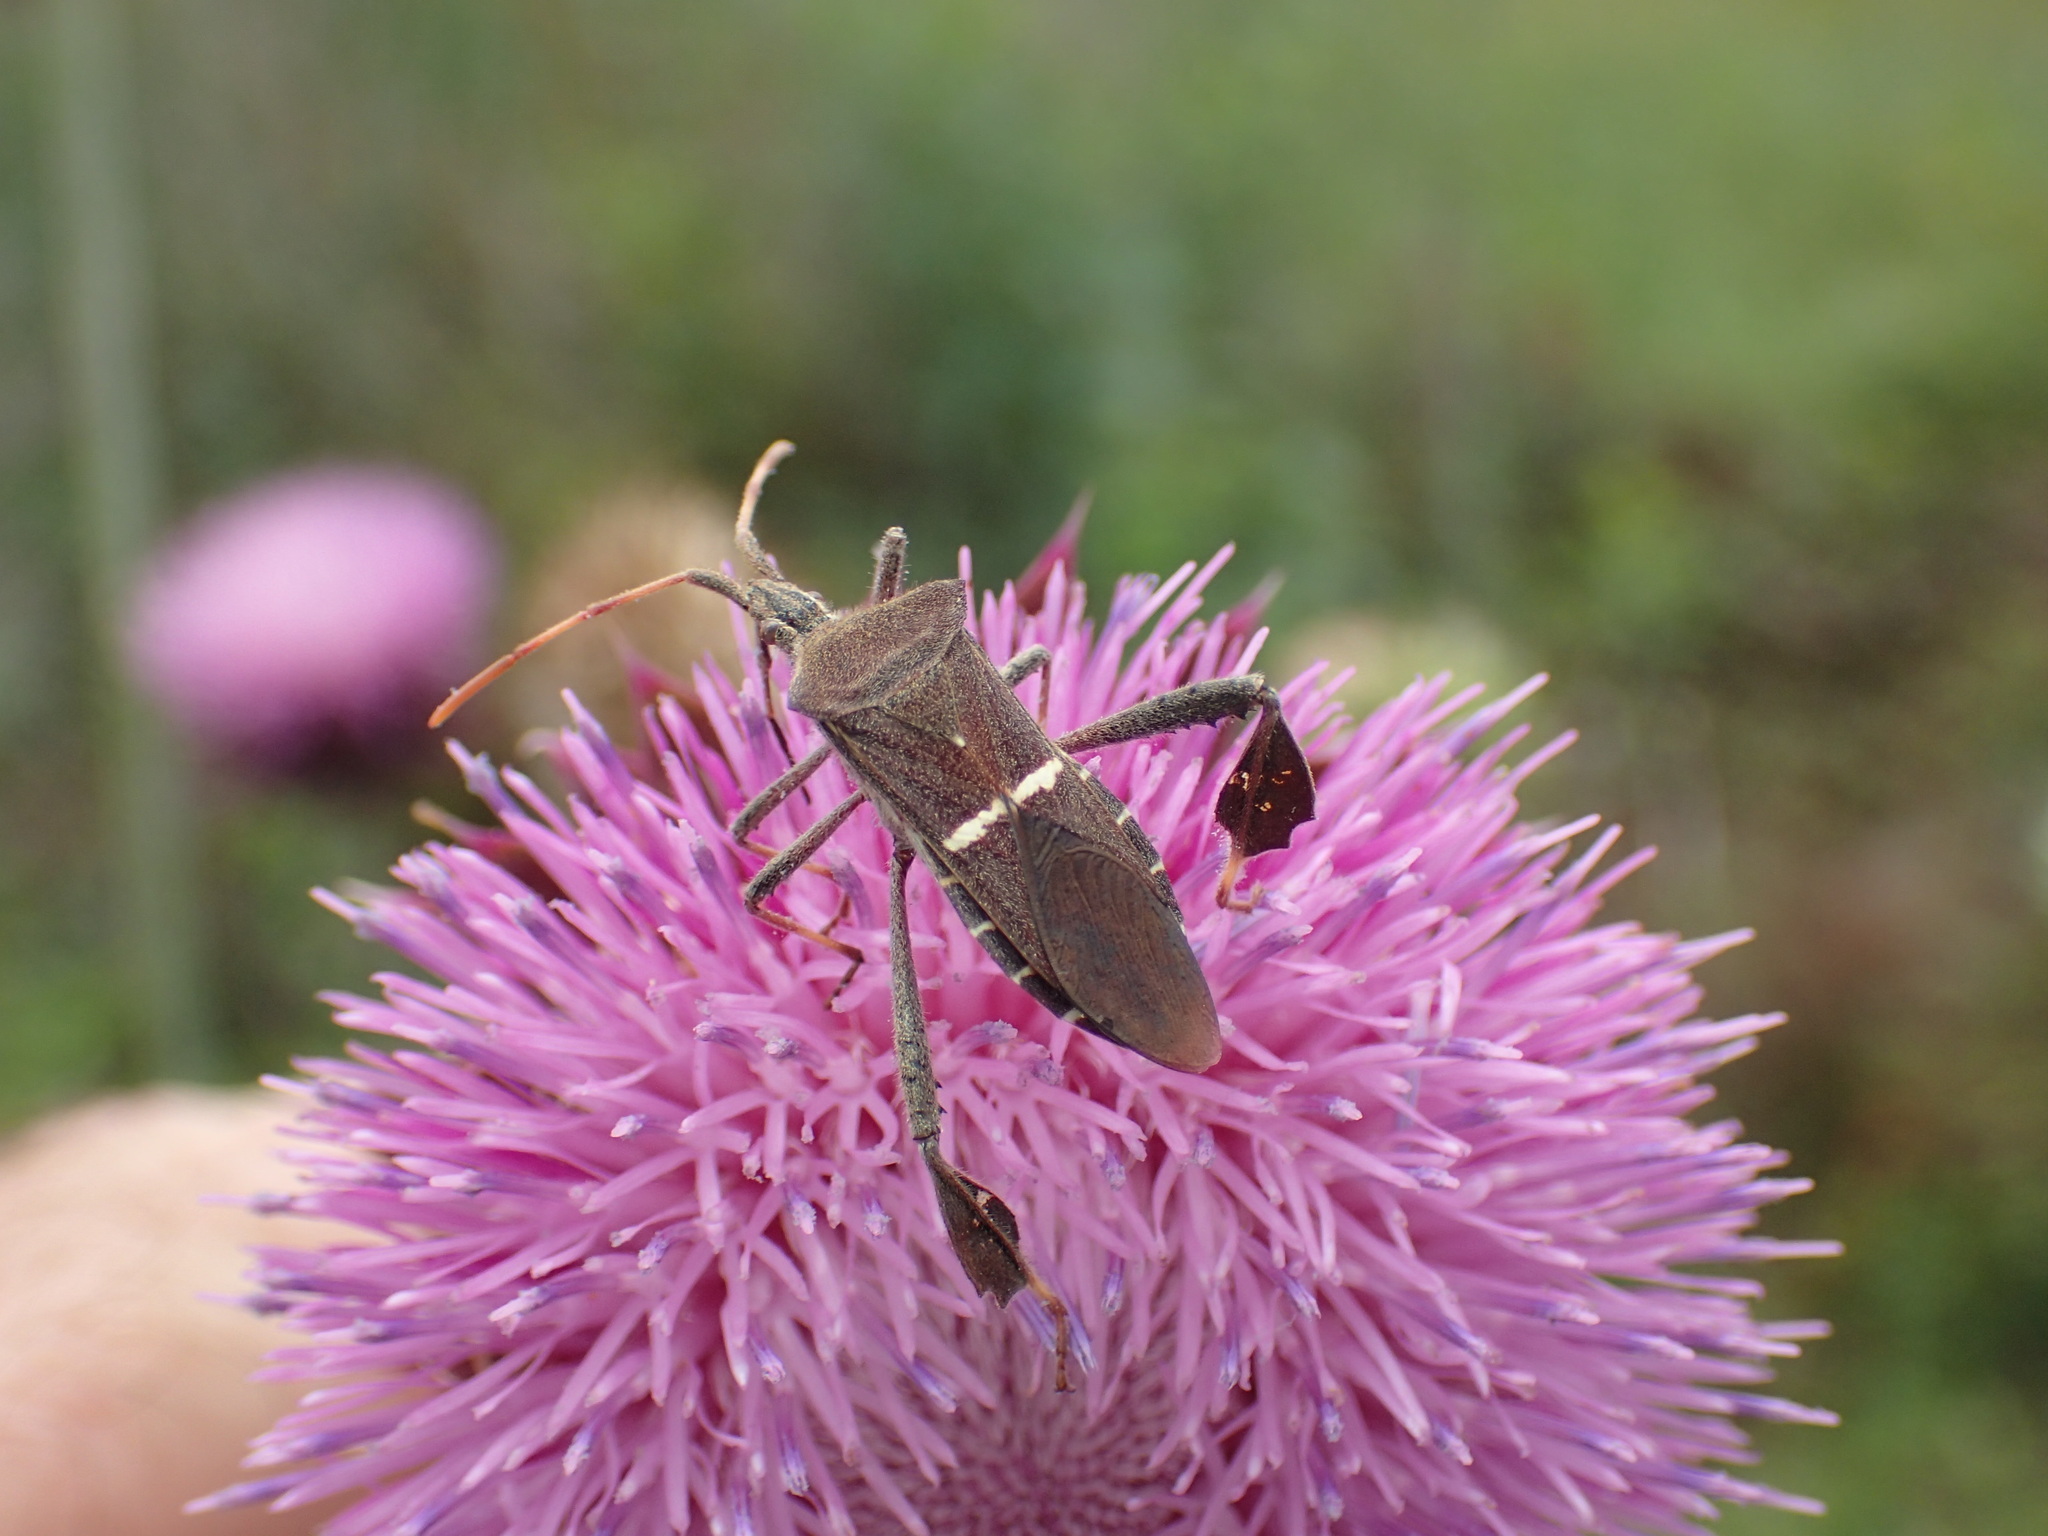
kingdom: Animalia
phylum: Arthropoda
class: Insecta
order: Hemiptera
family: Coreidae
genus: Leptoglossus
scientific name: Leptoglossus phyllopus
